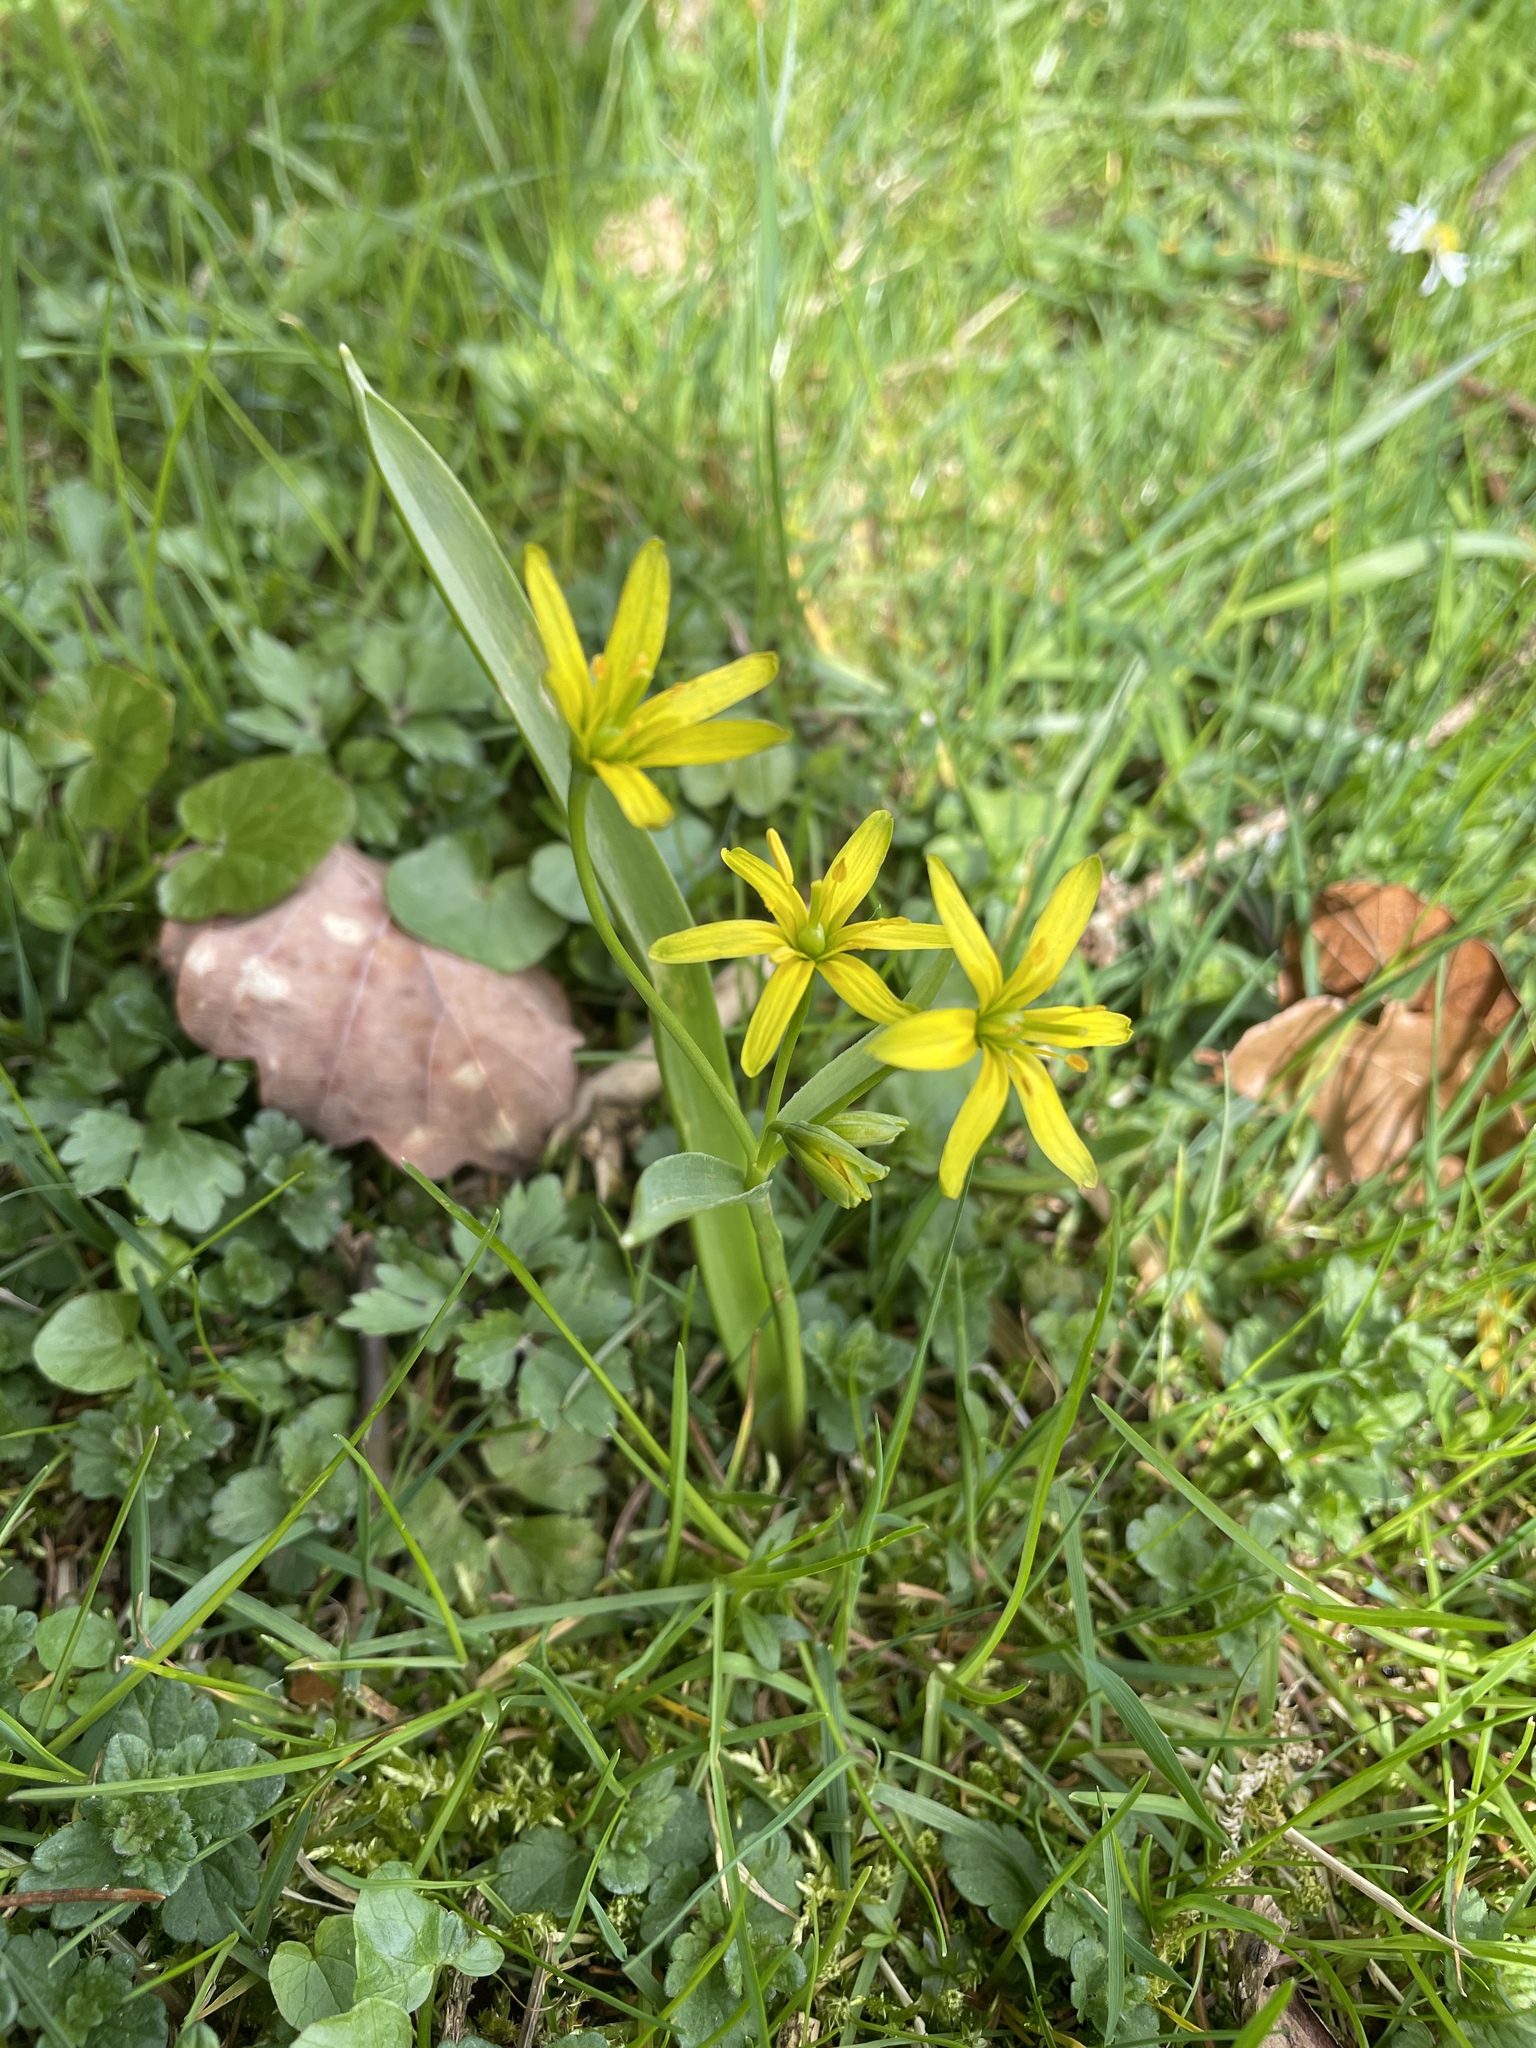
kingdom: Plantae
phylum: Tracheophyta
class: Liliopsida
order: Liliales
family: Liliaceae
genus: Gagea
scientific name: Gagea lutea
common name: Yellow star-of-bethlehem
